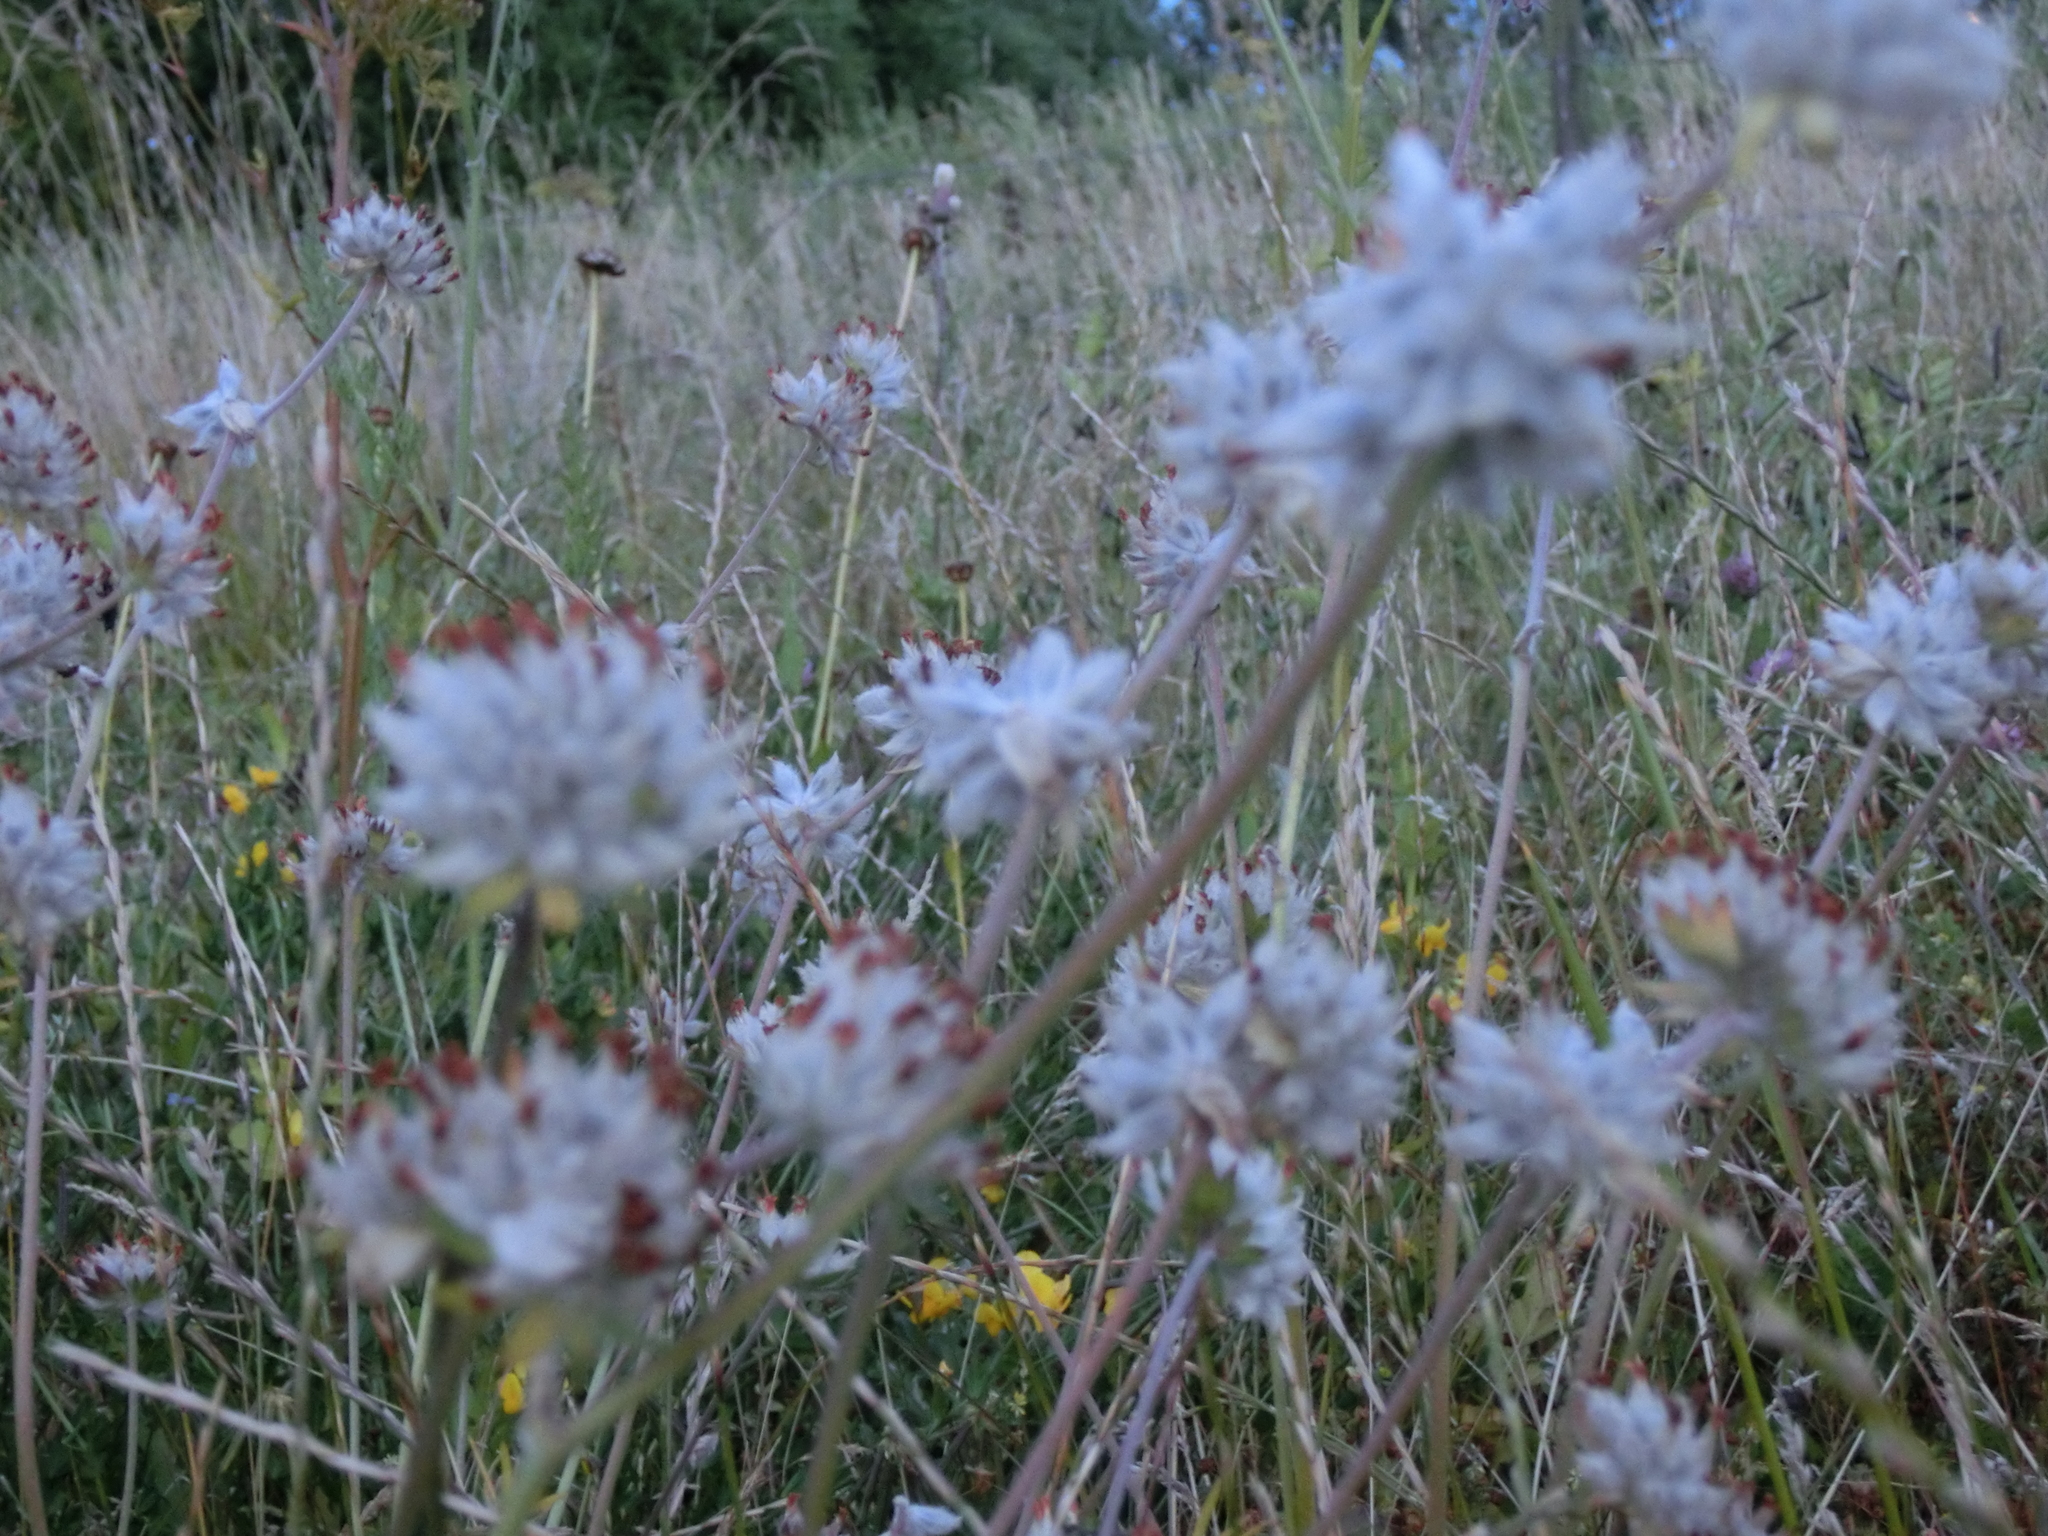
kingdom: Plantae
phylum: Tracheophyta
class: Magnoliopsida
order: Fabales
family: Fabaceae
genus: Anthyllis
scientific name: Anthyllis vulneraria
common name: Kidney vetch
